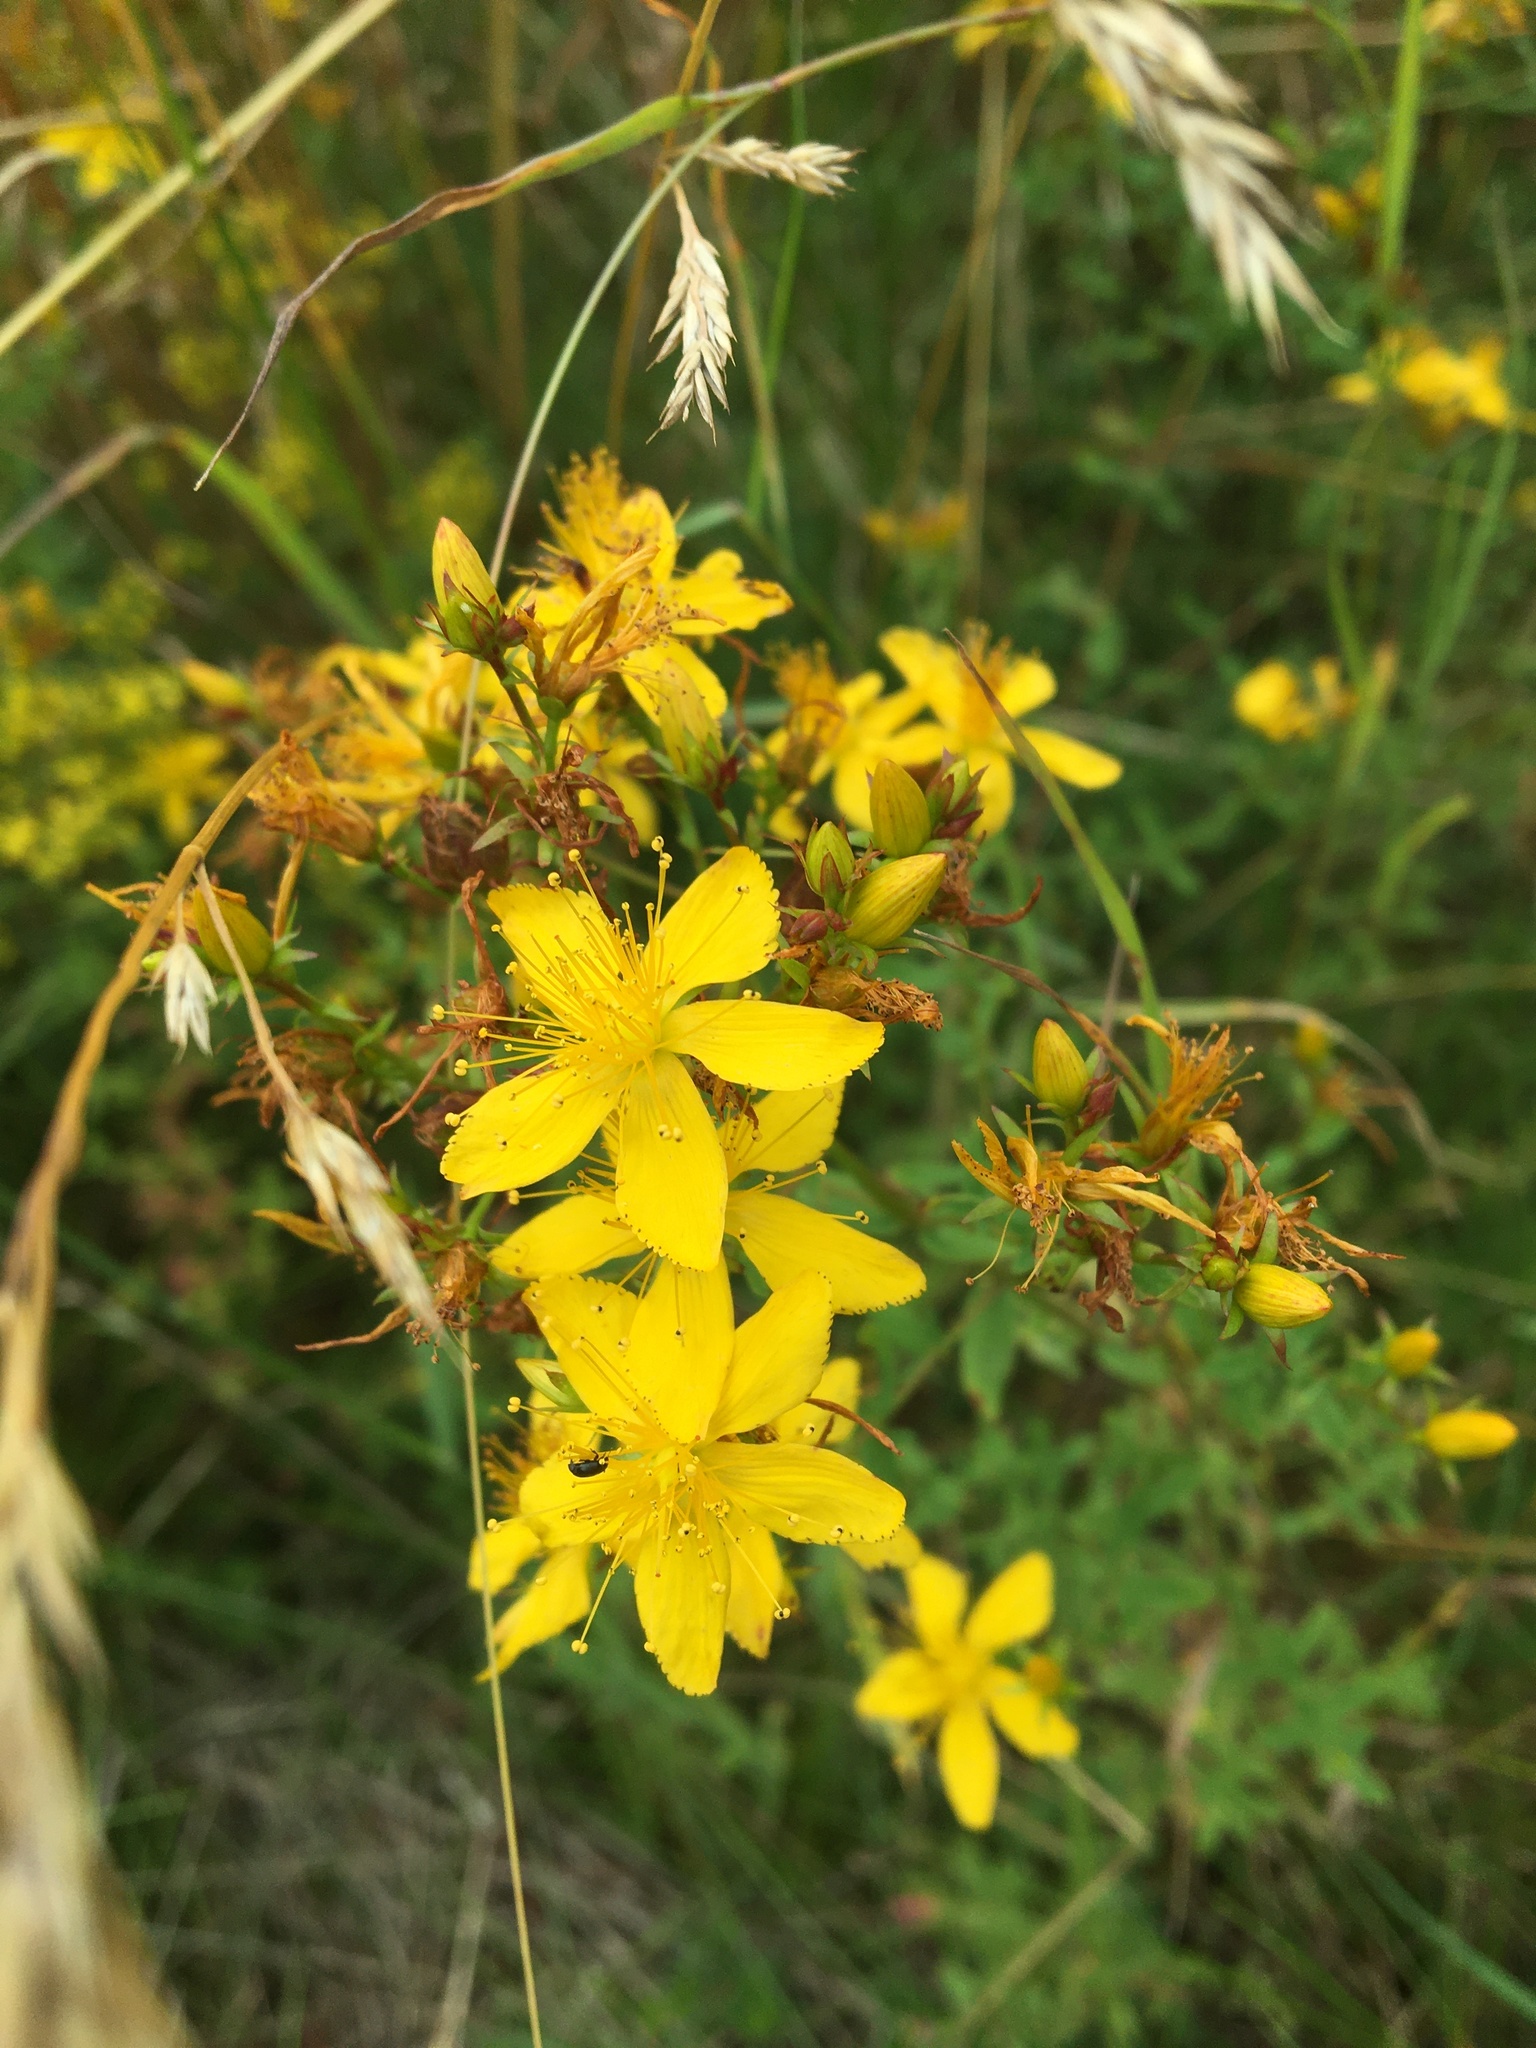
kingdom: Plantae
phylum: Tracheophyta
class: Magnoliopsida
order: Malpighiales
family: Hypericaceae
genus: Hypericum
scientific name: Hypericum perforatum
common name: Common st. johnswort
